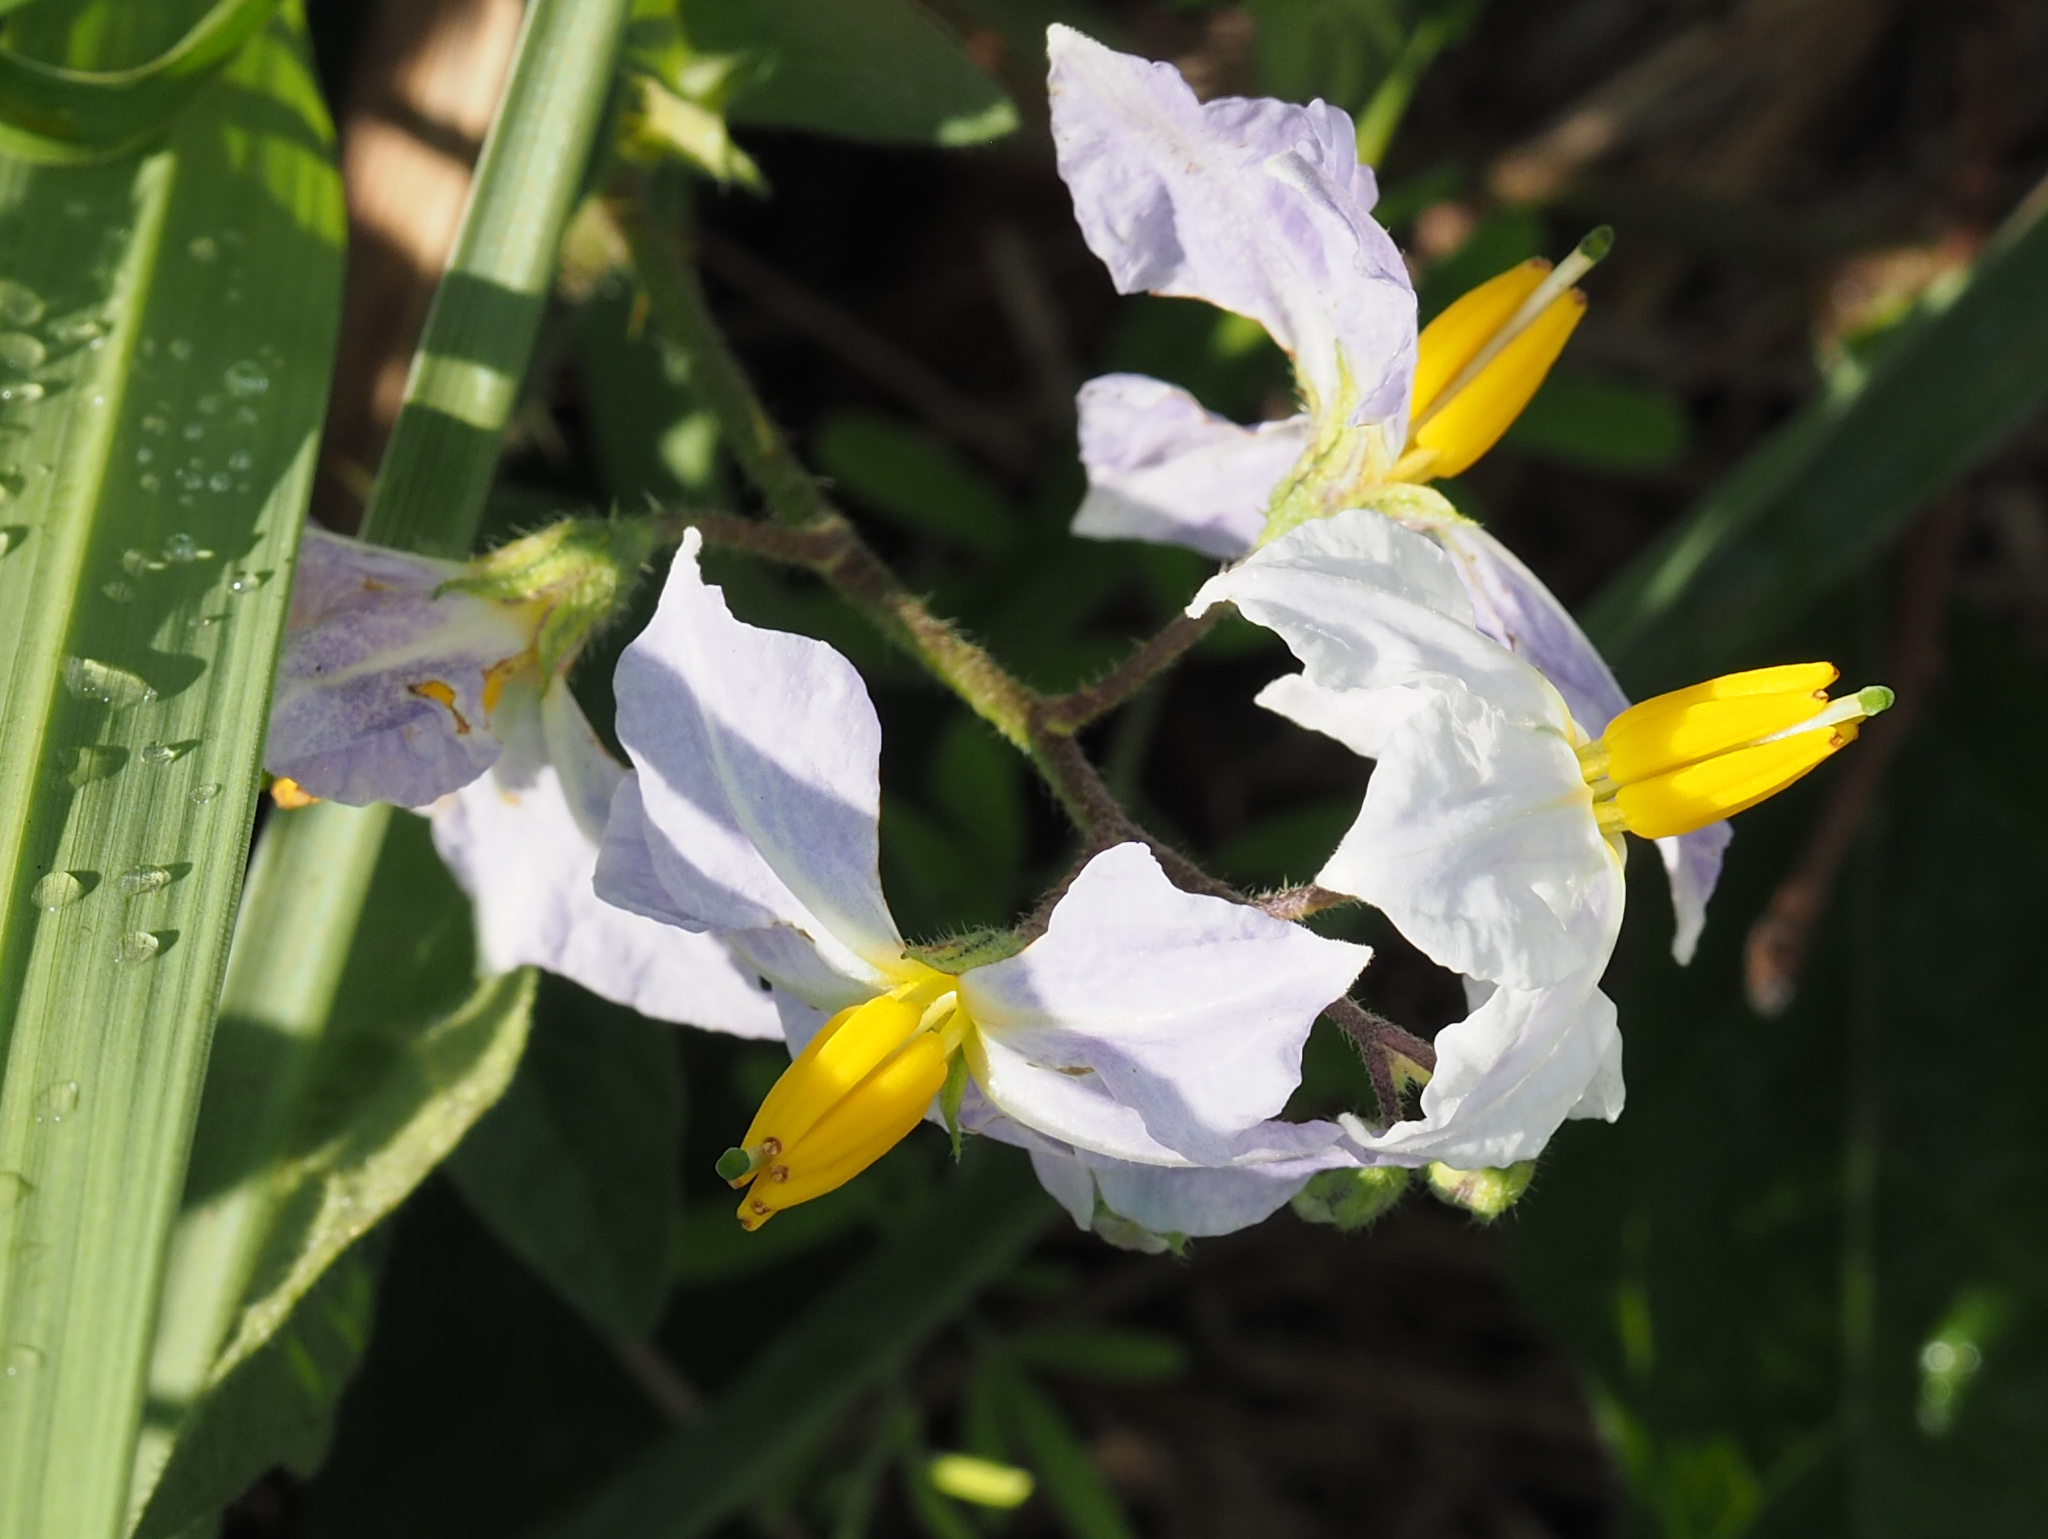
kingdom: Plantae
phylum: Tracheophyta
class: Magnoliopsida
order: Solanales
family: Solanaceae
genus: Solanum
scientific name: Solanum carolinense
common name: Horse-nettle
